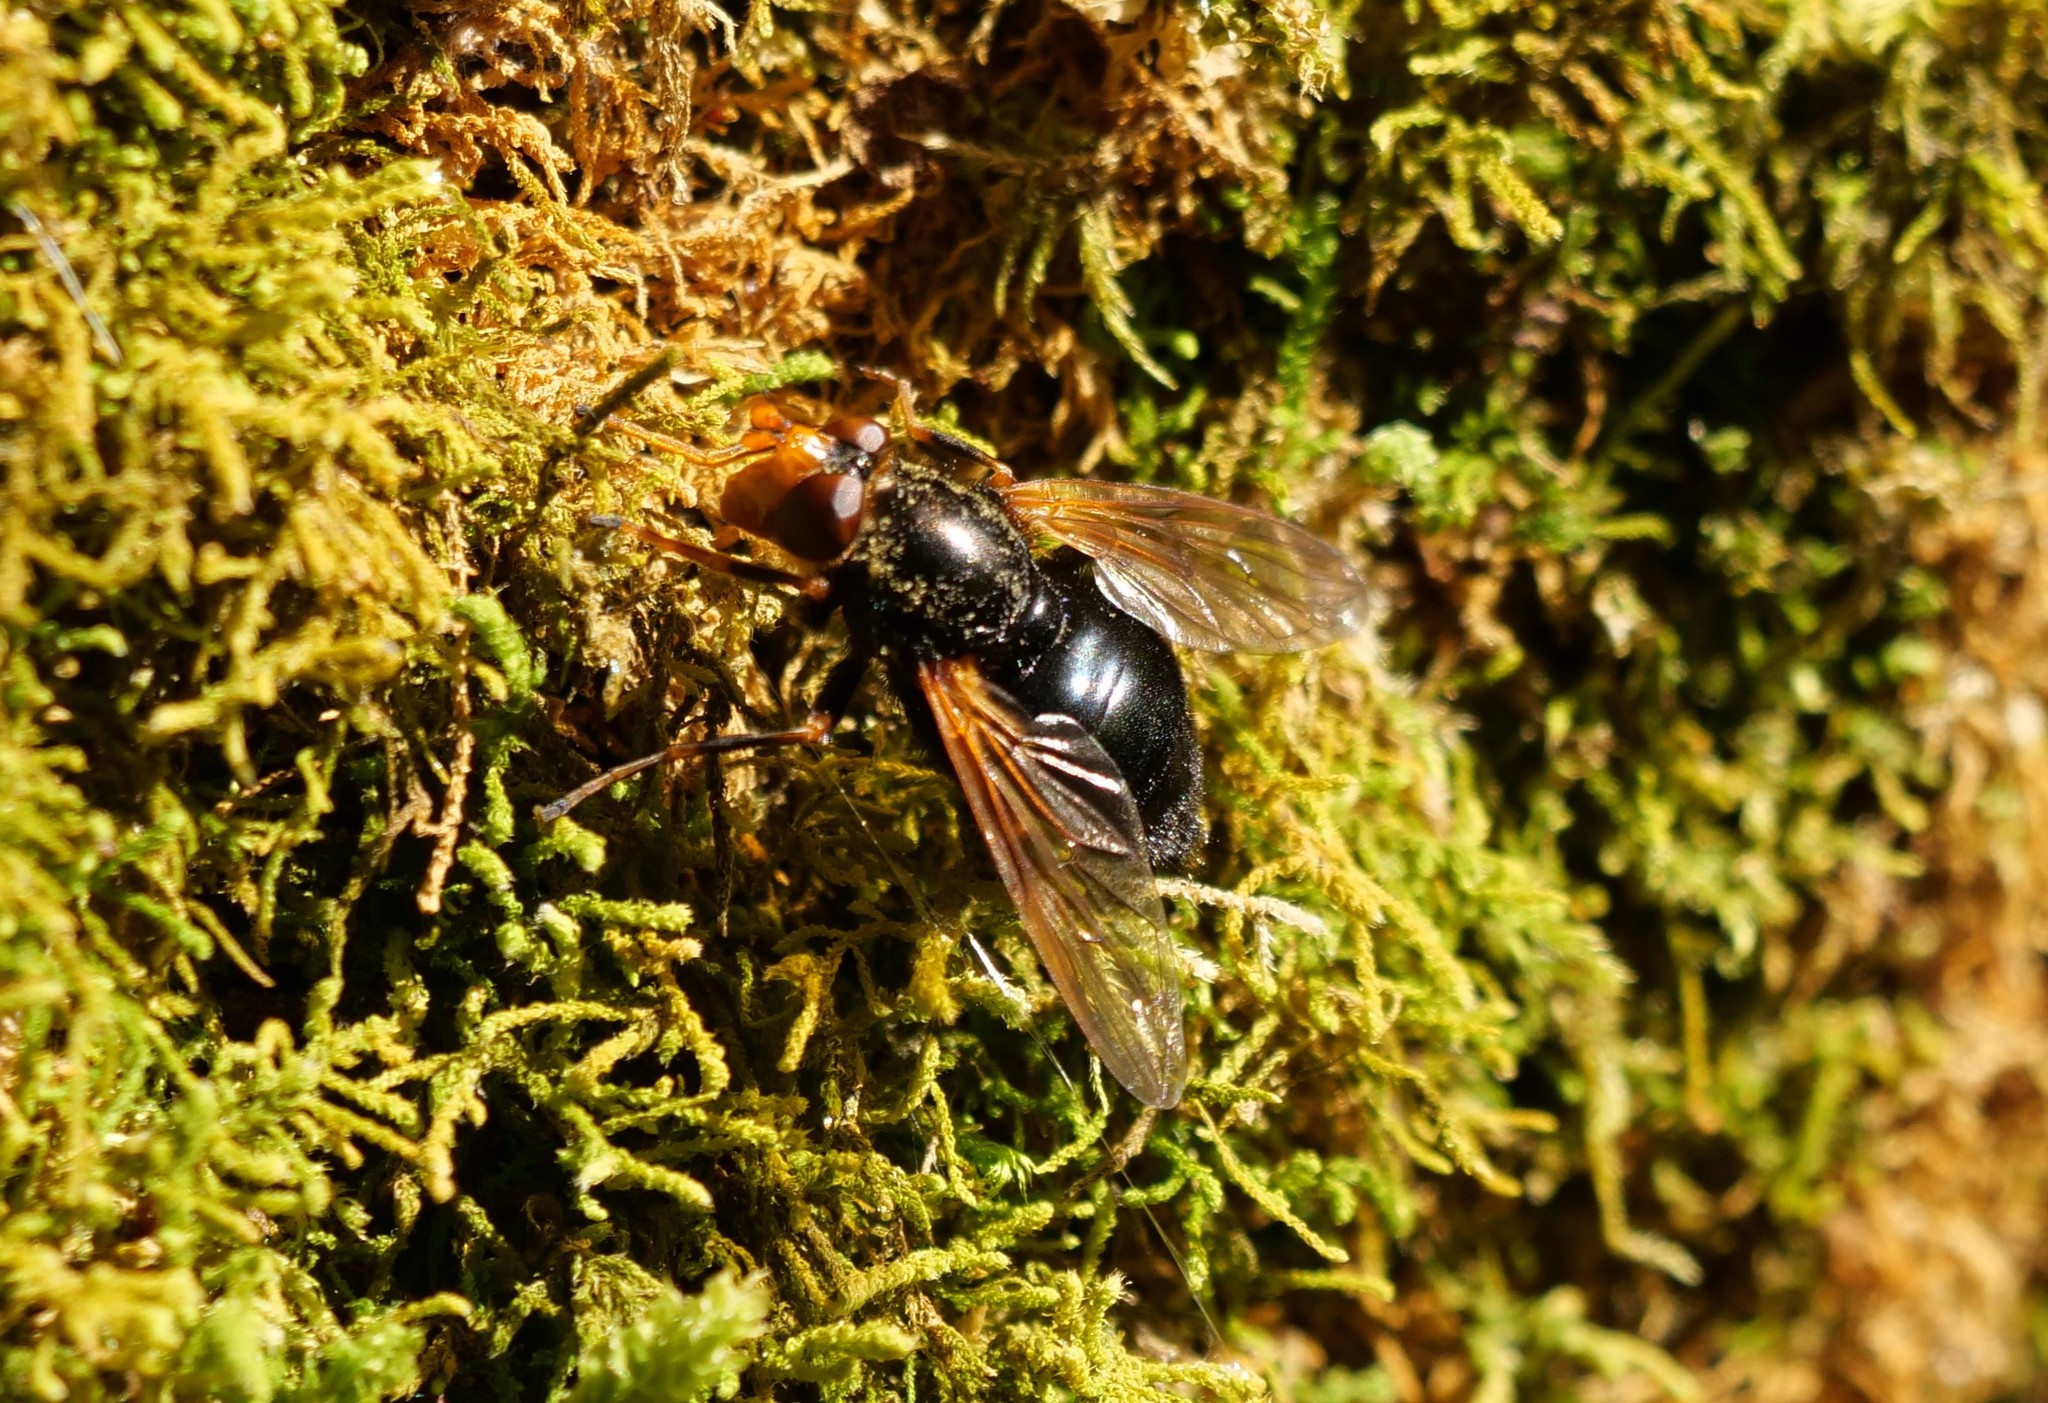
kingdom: Animalia
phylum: Arthropoda
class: Insecta
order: Diptera
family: Syrphidae
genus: Blera
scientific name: Blera armillata
